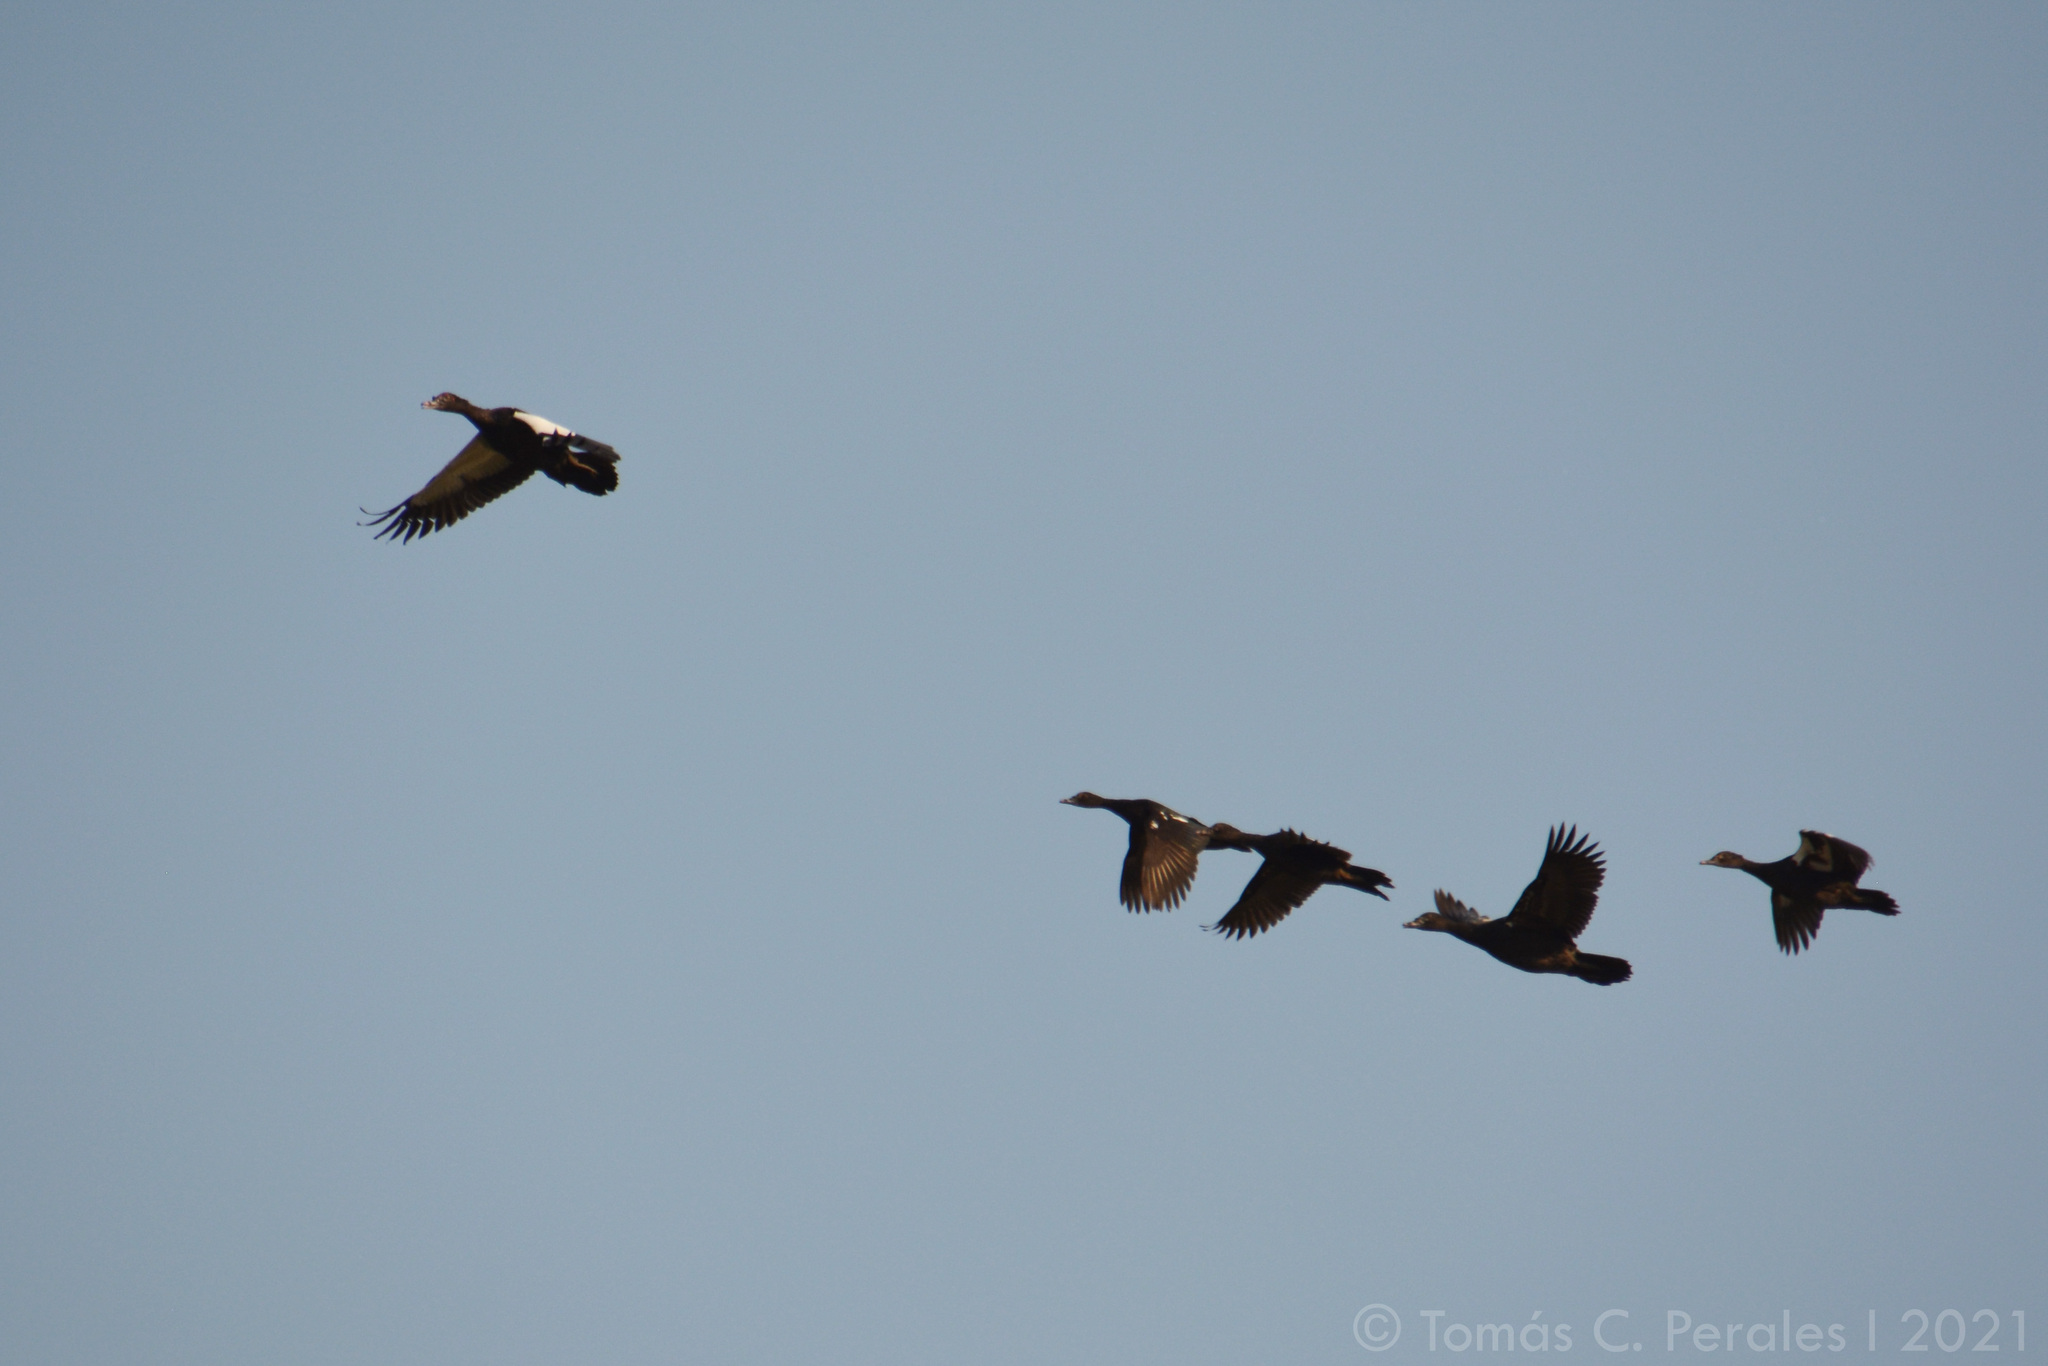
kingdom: Animalia
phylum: Chordata
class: Aves
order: Anseriformes
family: Anatidae
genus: Cairina
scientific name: Cairina moschata
